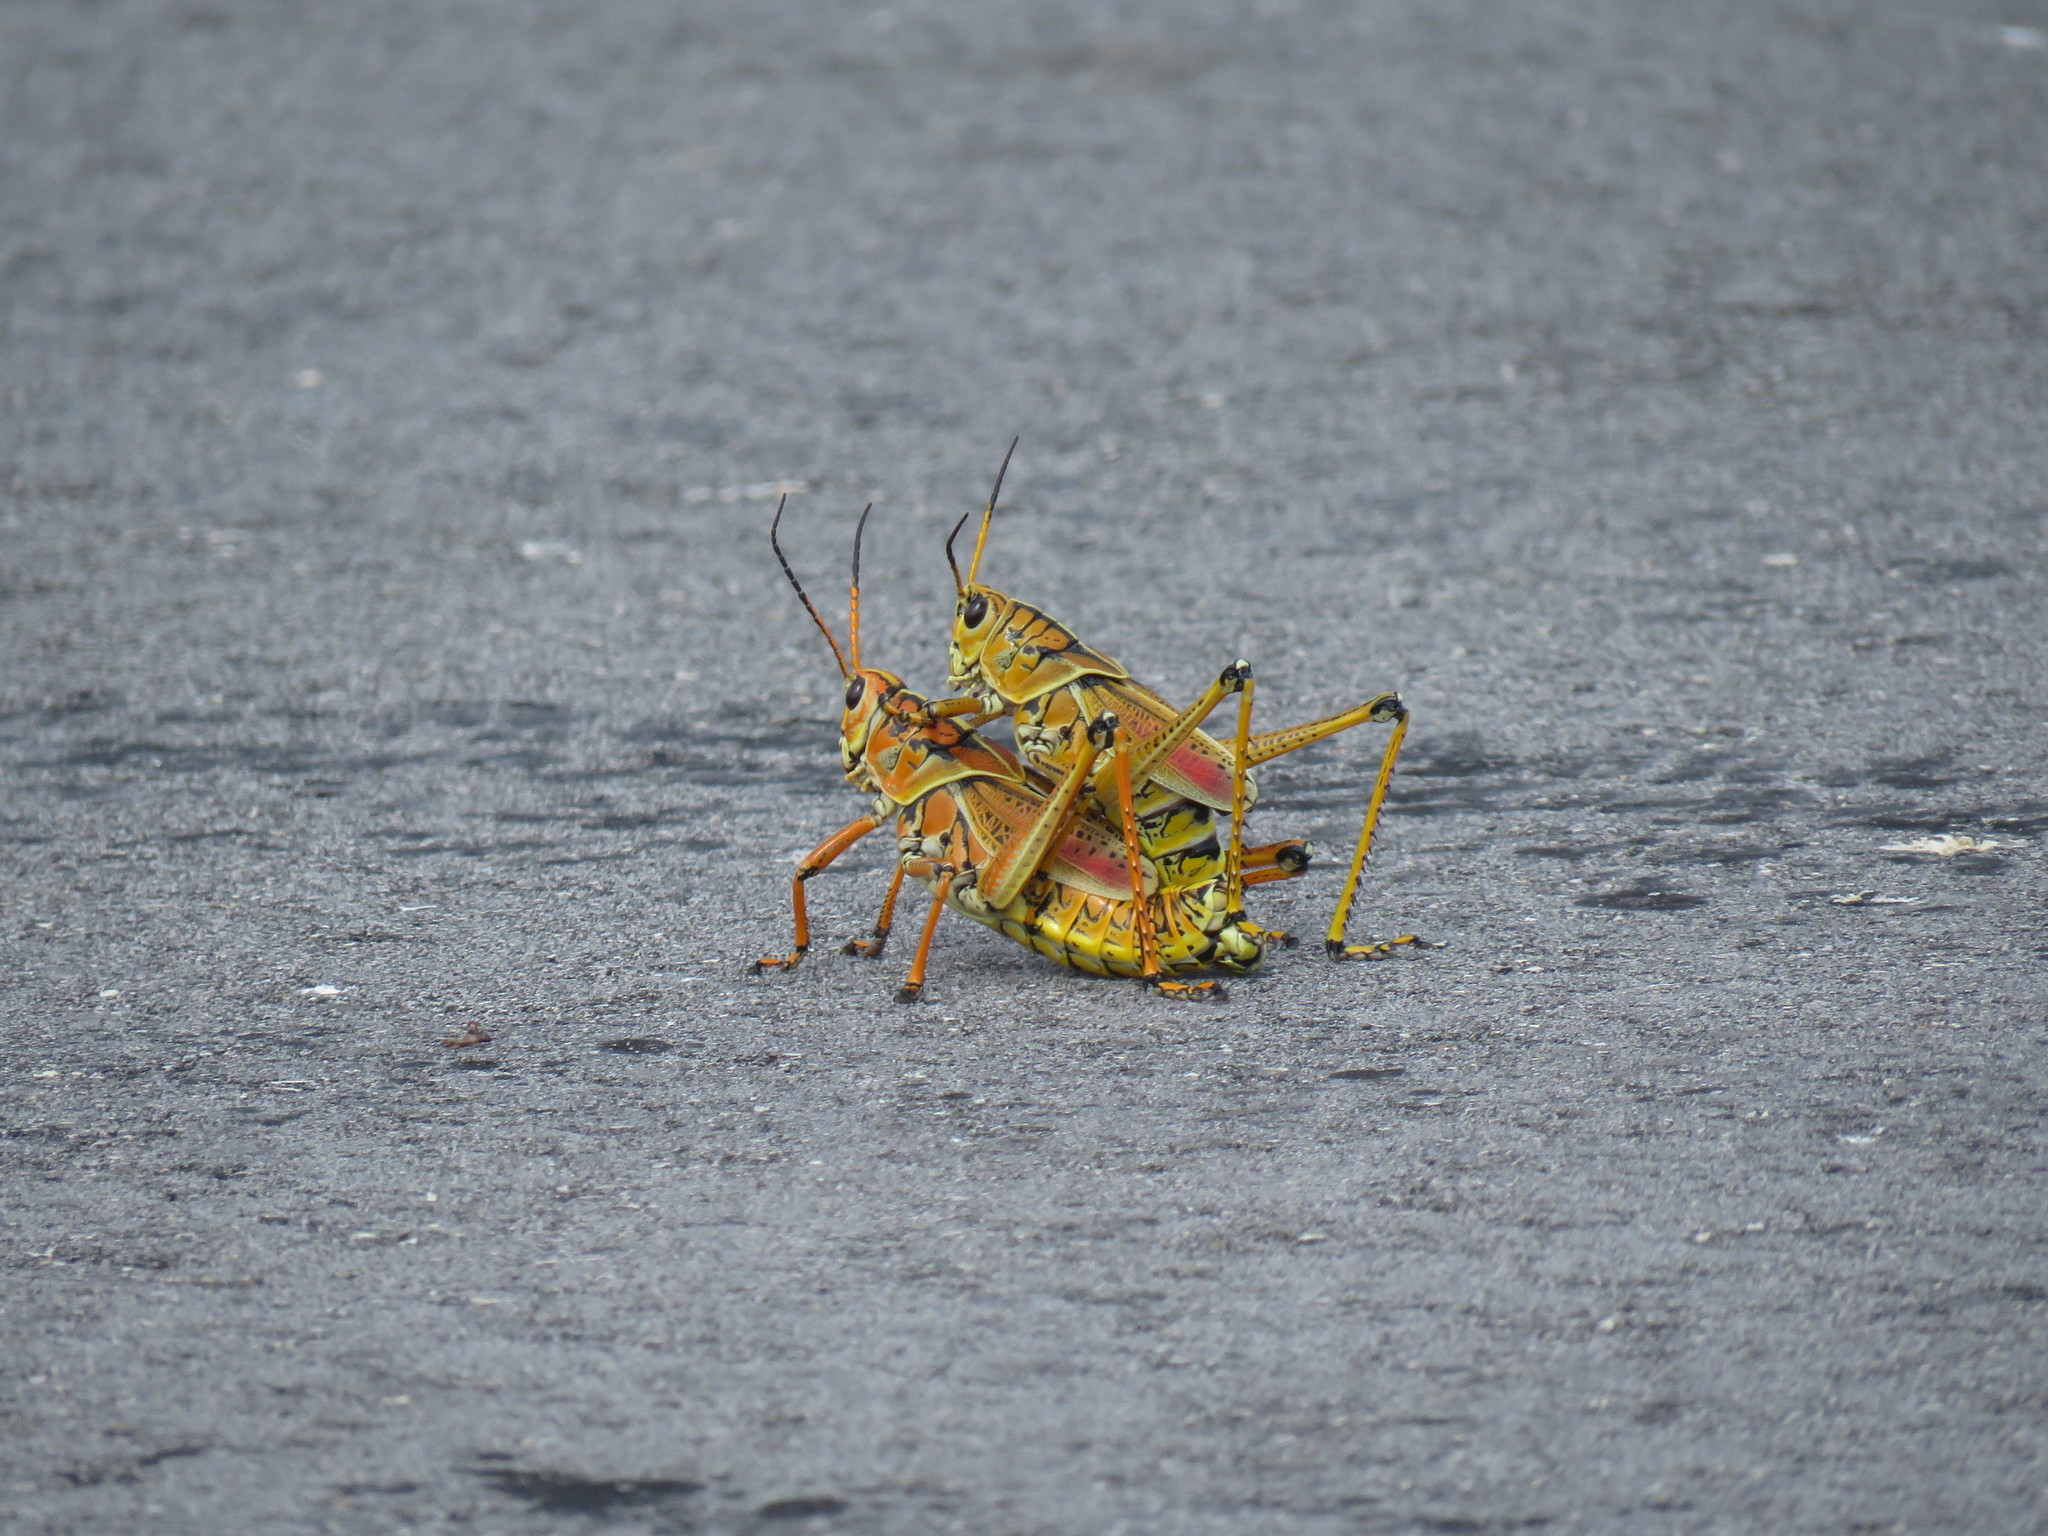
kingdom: Animalia
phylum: Arthropoda
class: Insecta
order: Orthoptera
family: Romaleidae
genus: Romalea
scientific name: Romalea microptera
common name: Eastern lubber grasshopper
